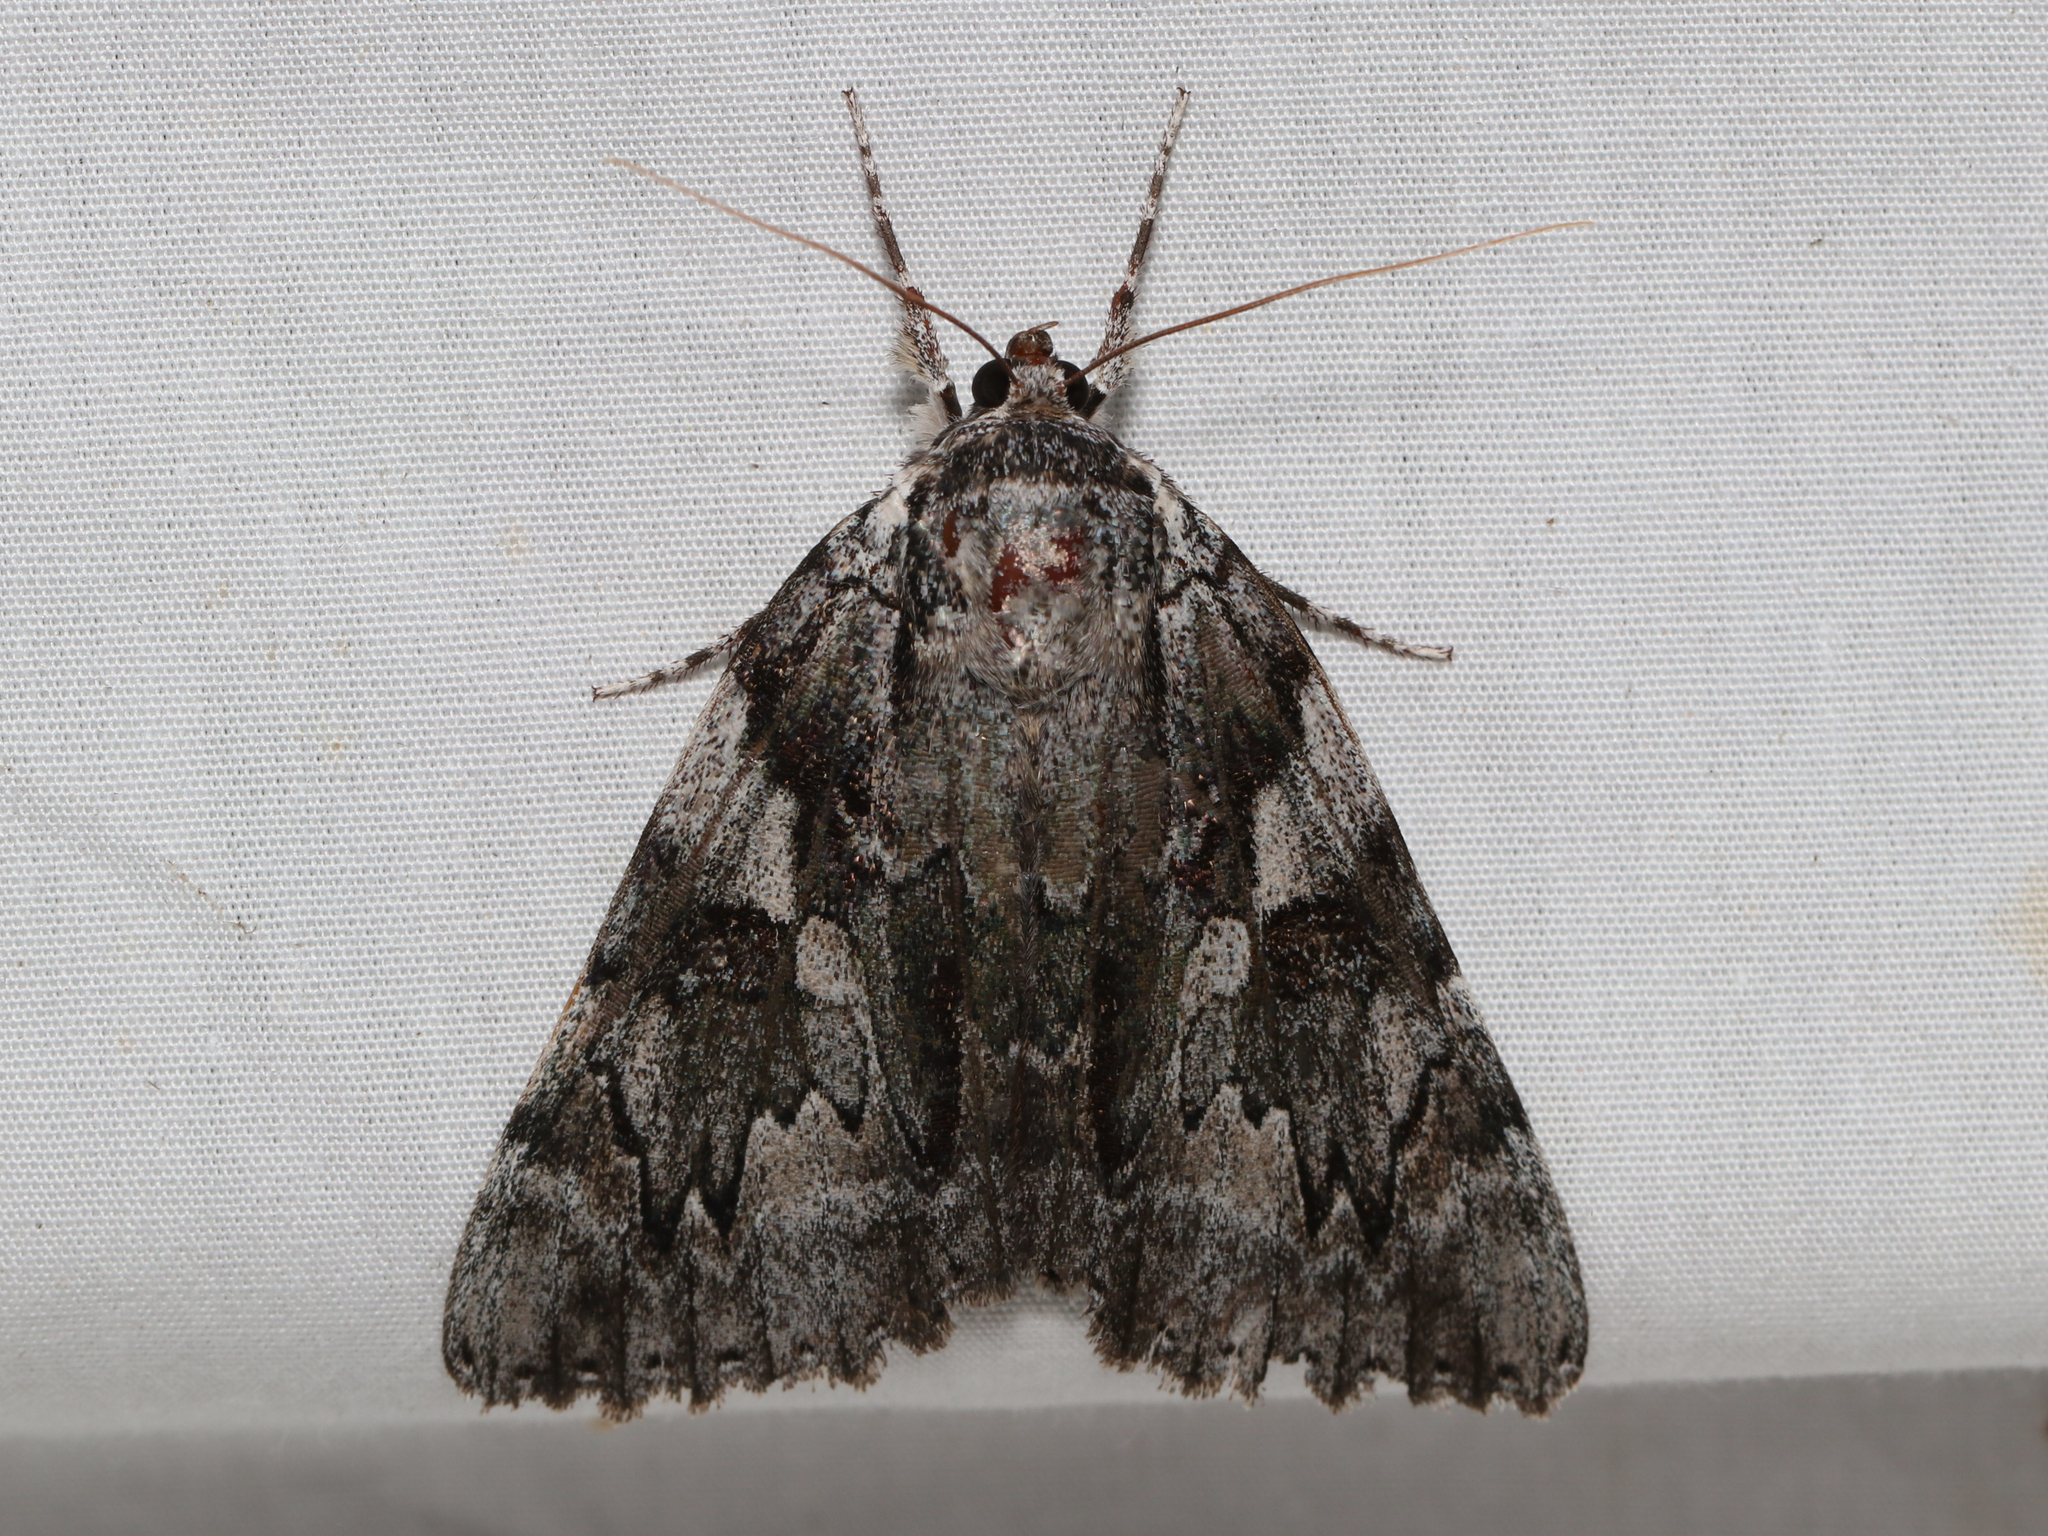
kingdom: Animalia
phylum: Arthropoda
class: Insecta
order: Lepidoptera
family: Erebidae
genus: Catocala
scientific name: Catocala dejecta
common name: Dejected underwing
